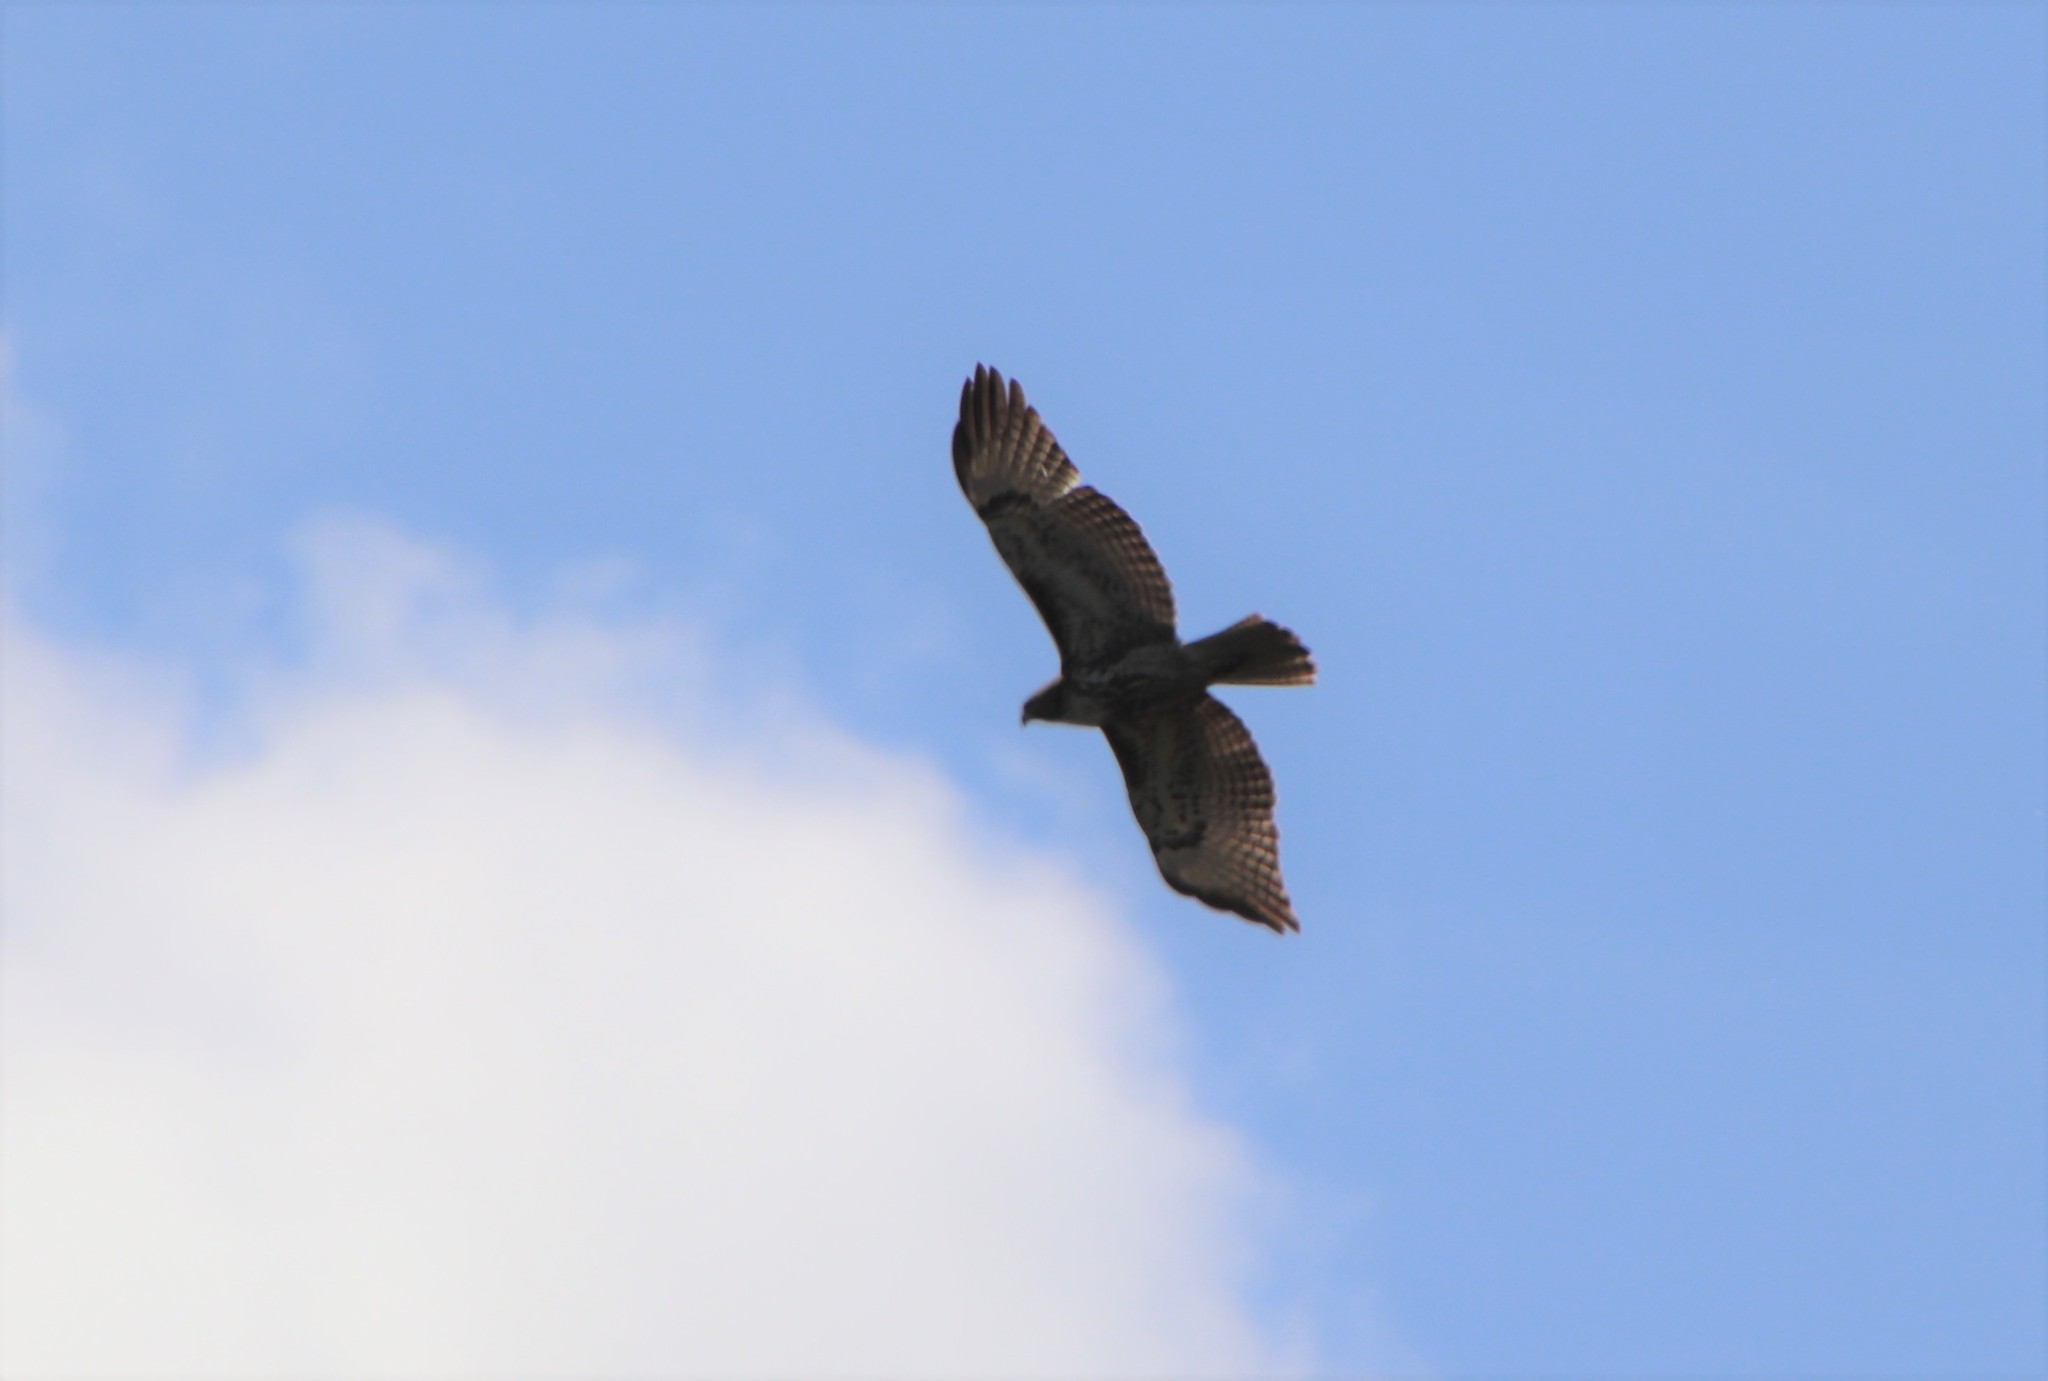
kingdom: Animalia
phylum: Chordata
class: Aves
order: Accipitriformes
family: Accipitridae
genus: Buteo
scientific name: Buteo jamaicensis
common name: Red-tailed hawk
